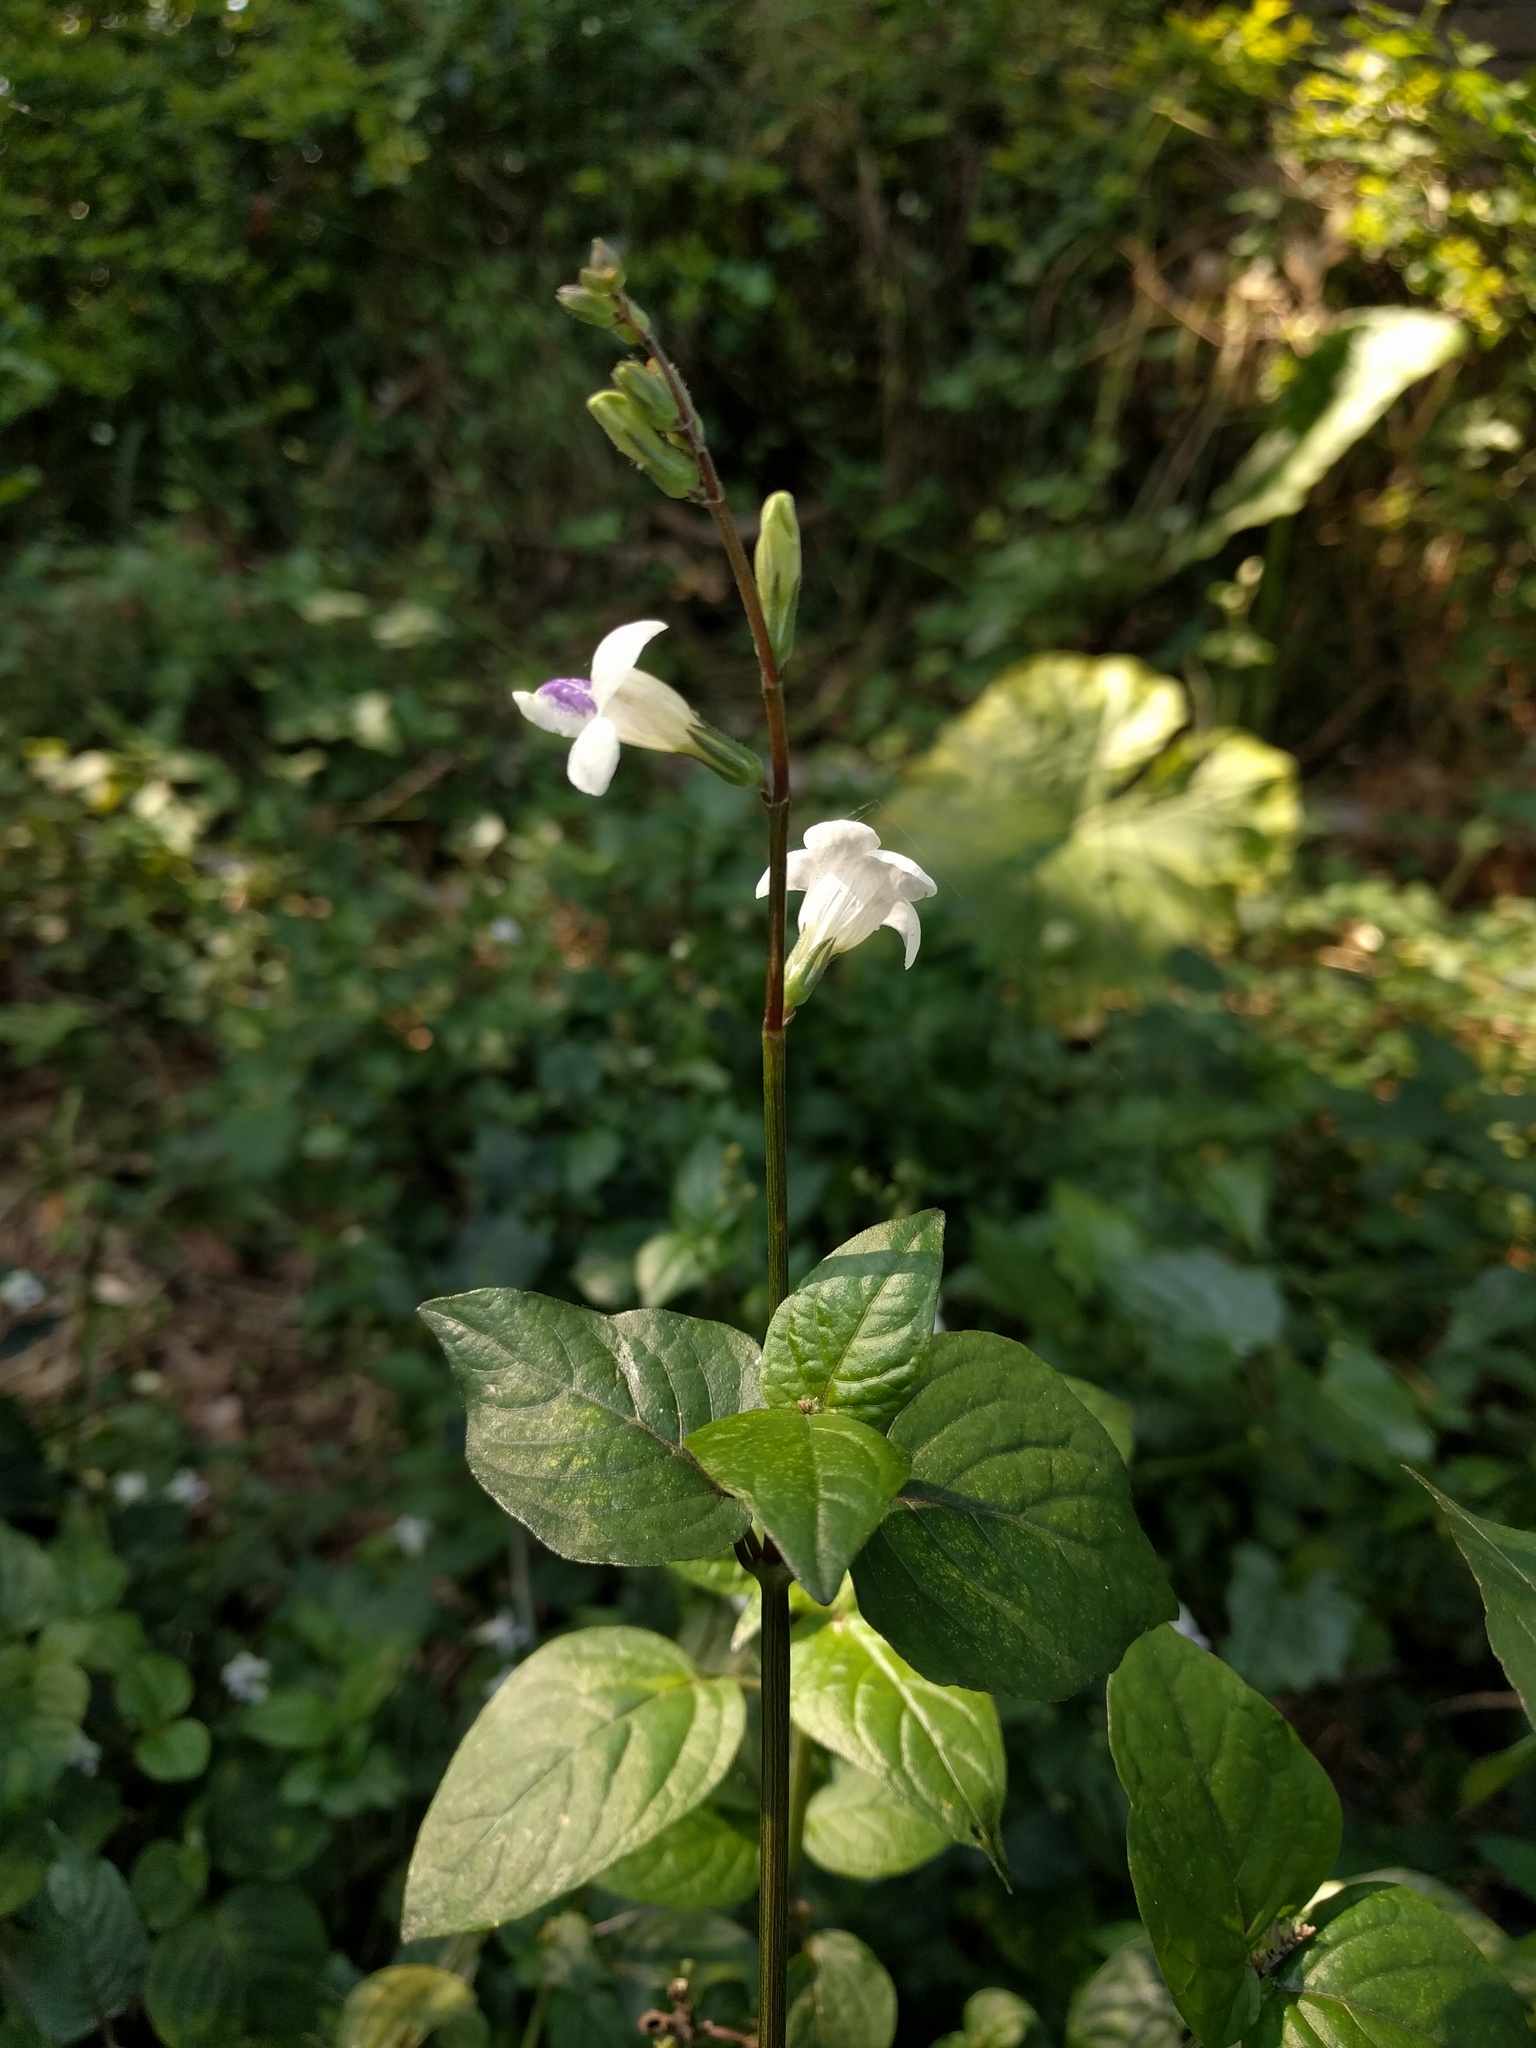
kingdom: Plantae
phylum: Tracheophyta
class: Magnoliopsida
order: Lamiales
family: Acanthaceae
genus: Asystasia
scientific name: Asystasia intrusa
